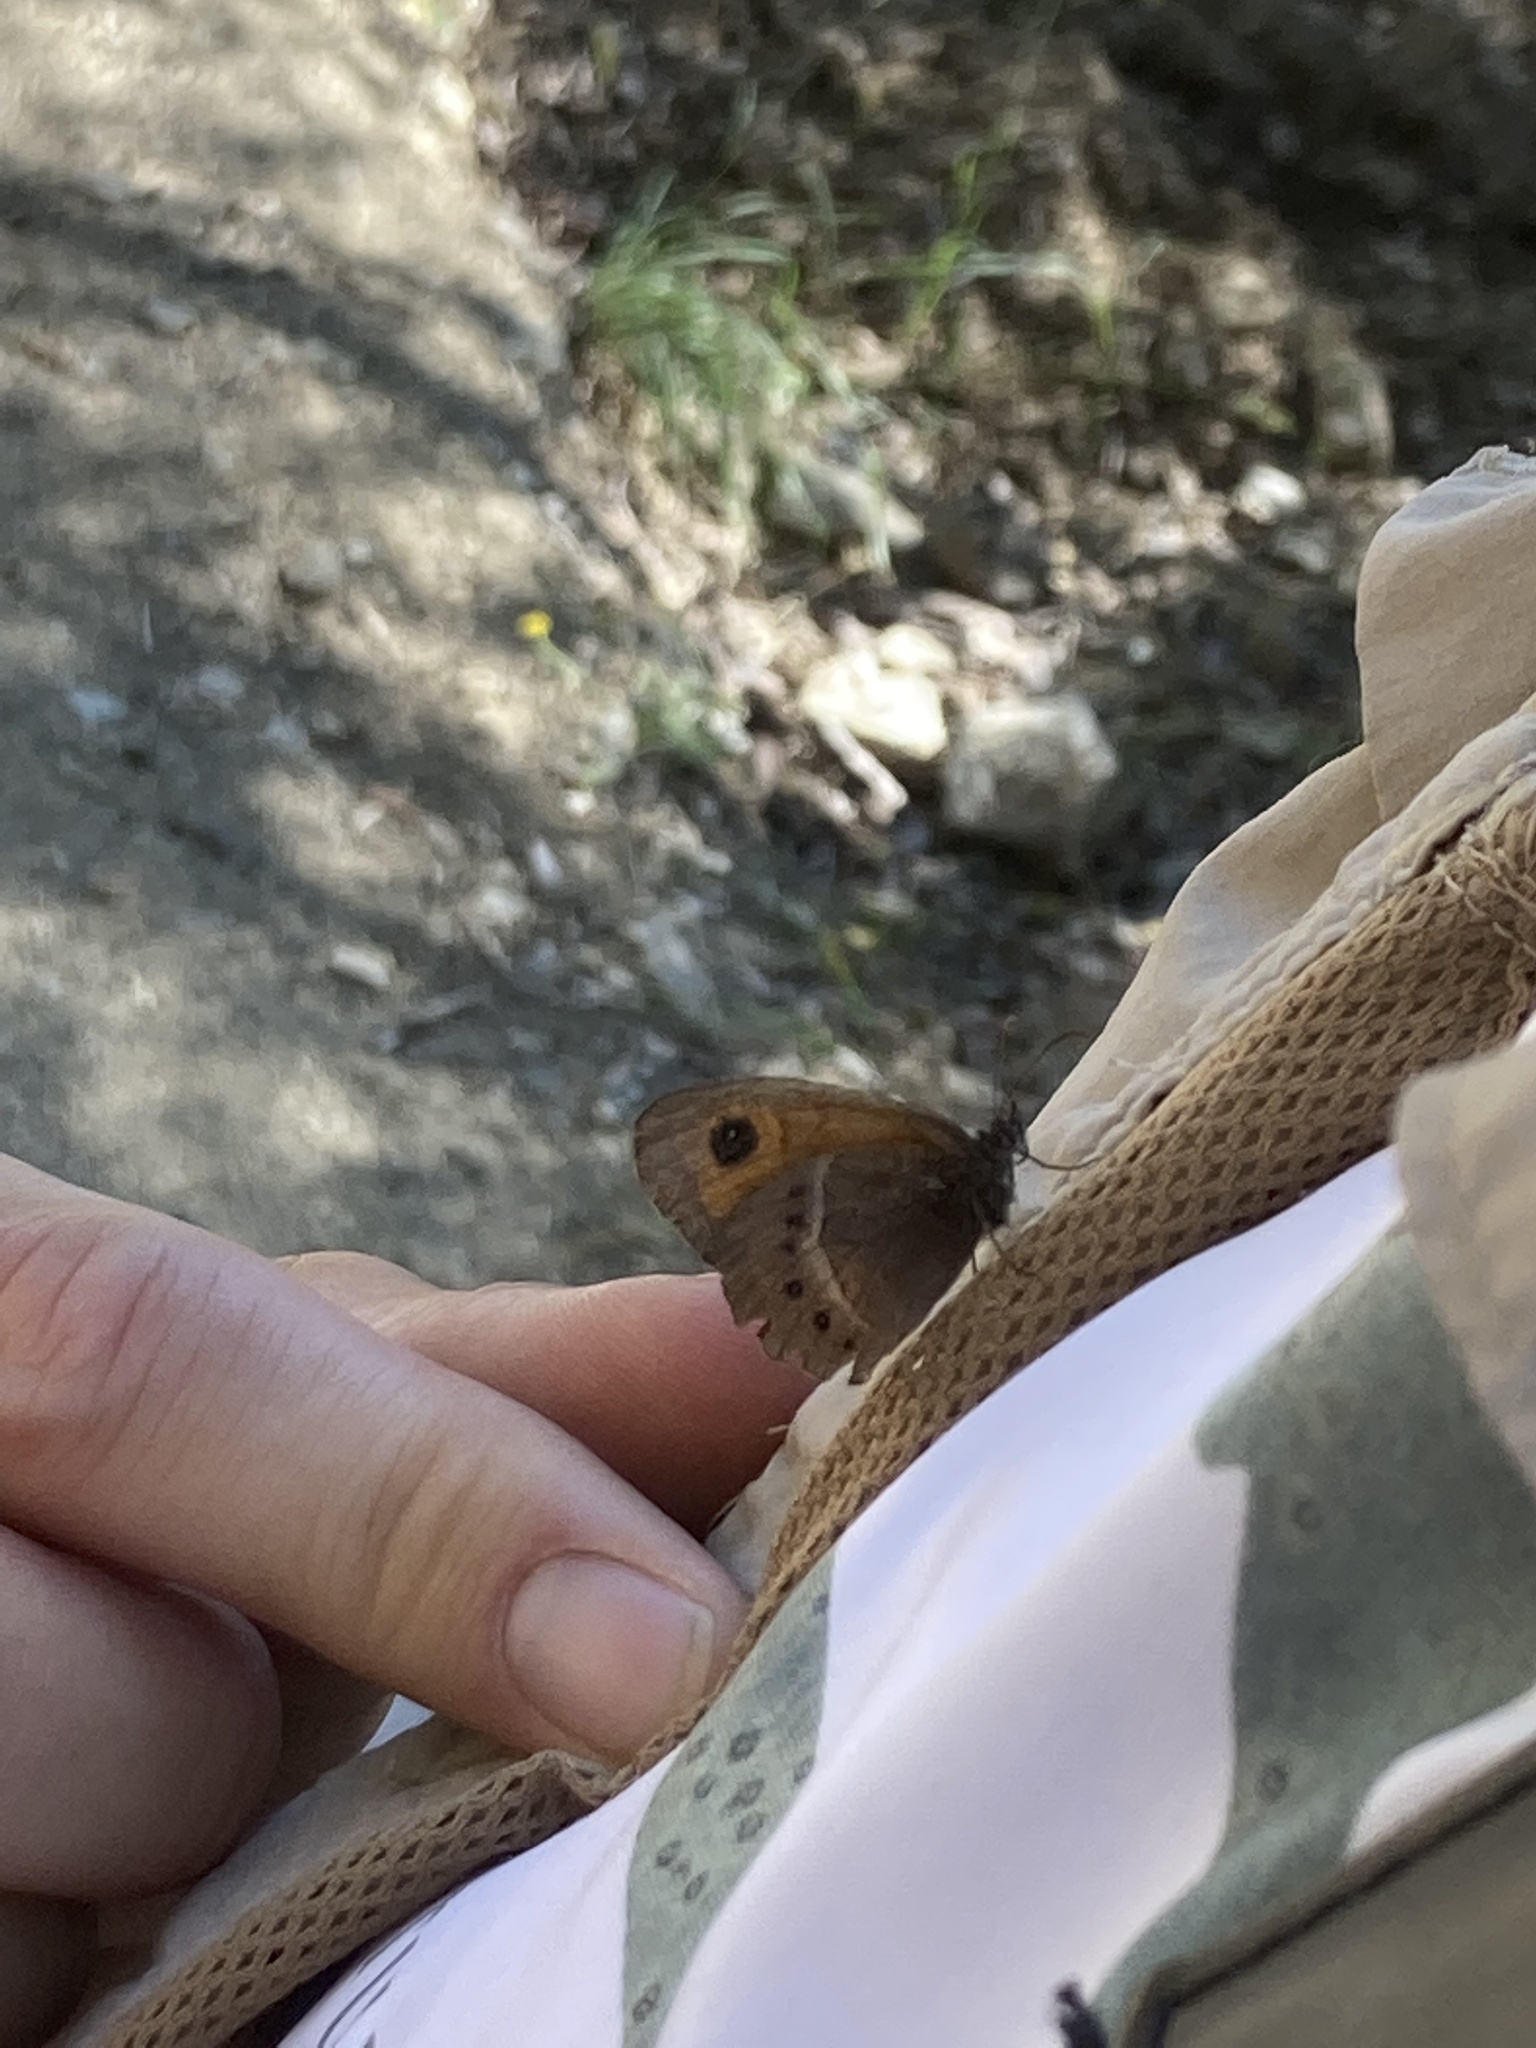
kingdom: Animalia
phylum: Arthropoda
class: Insecta
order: Lepidoptera
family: Nymphalidae
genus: Pyronia
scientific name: Pyronia bathseba
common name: Spanish gatekeeper
